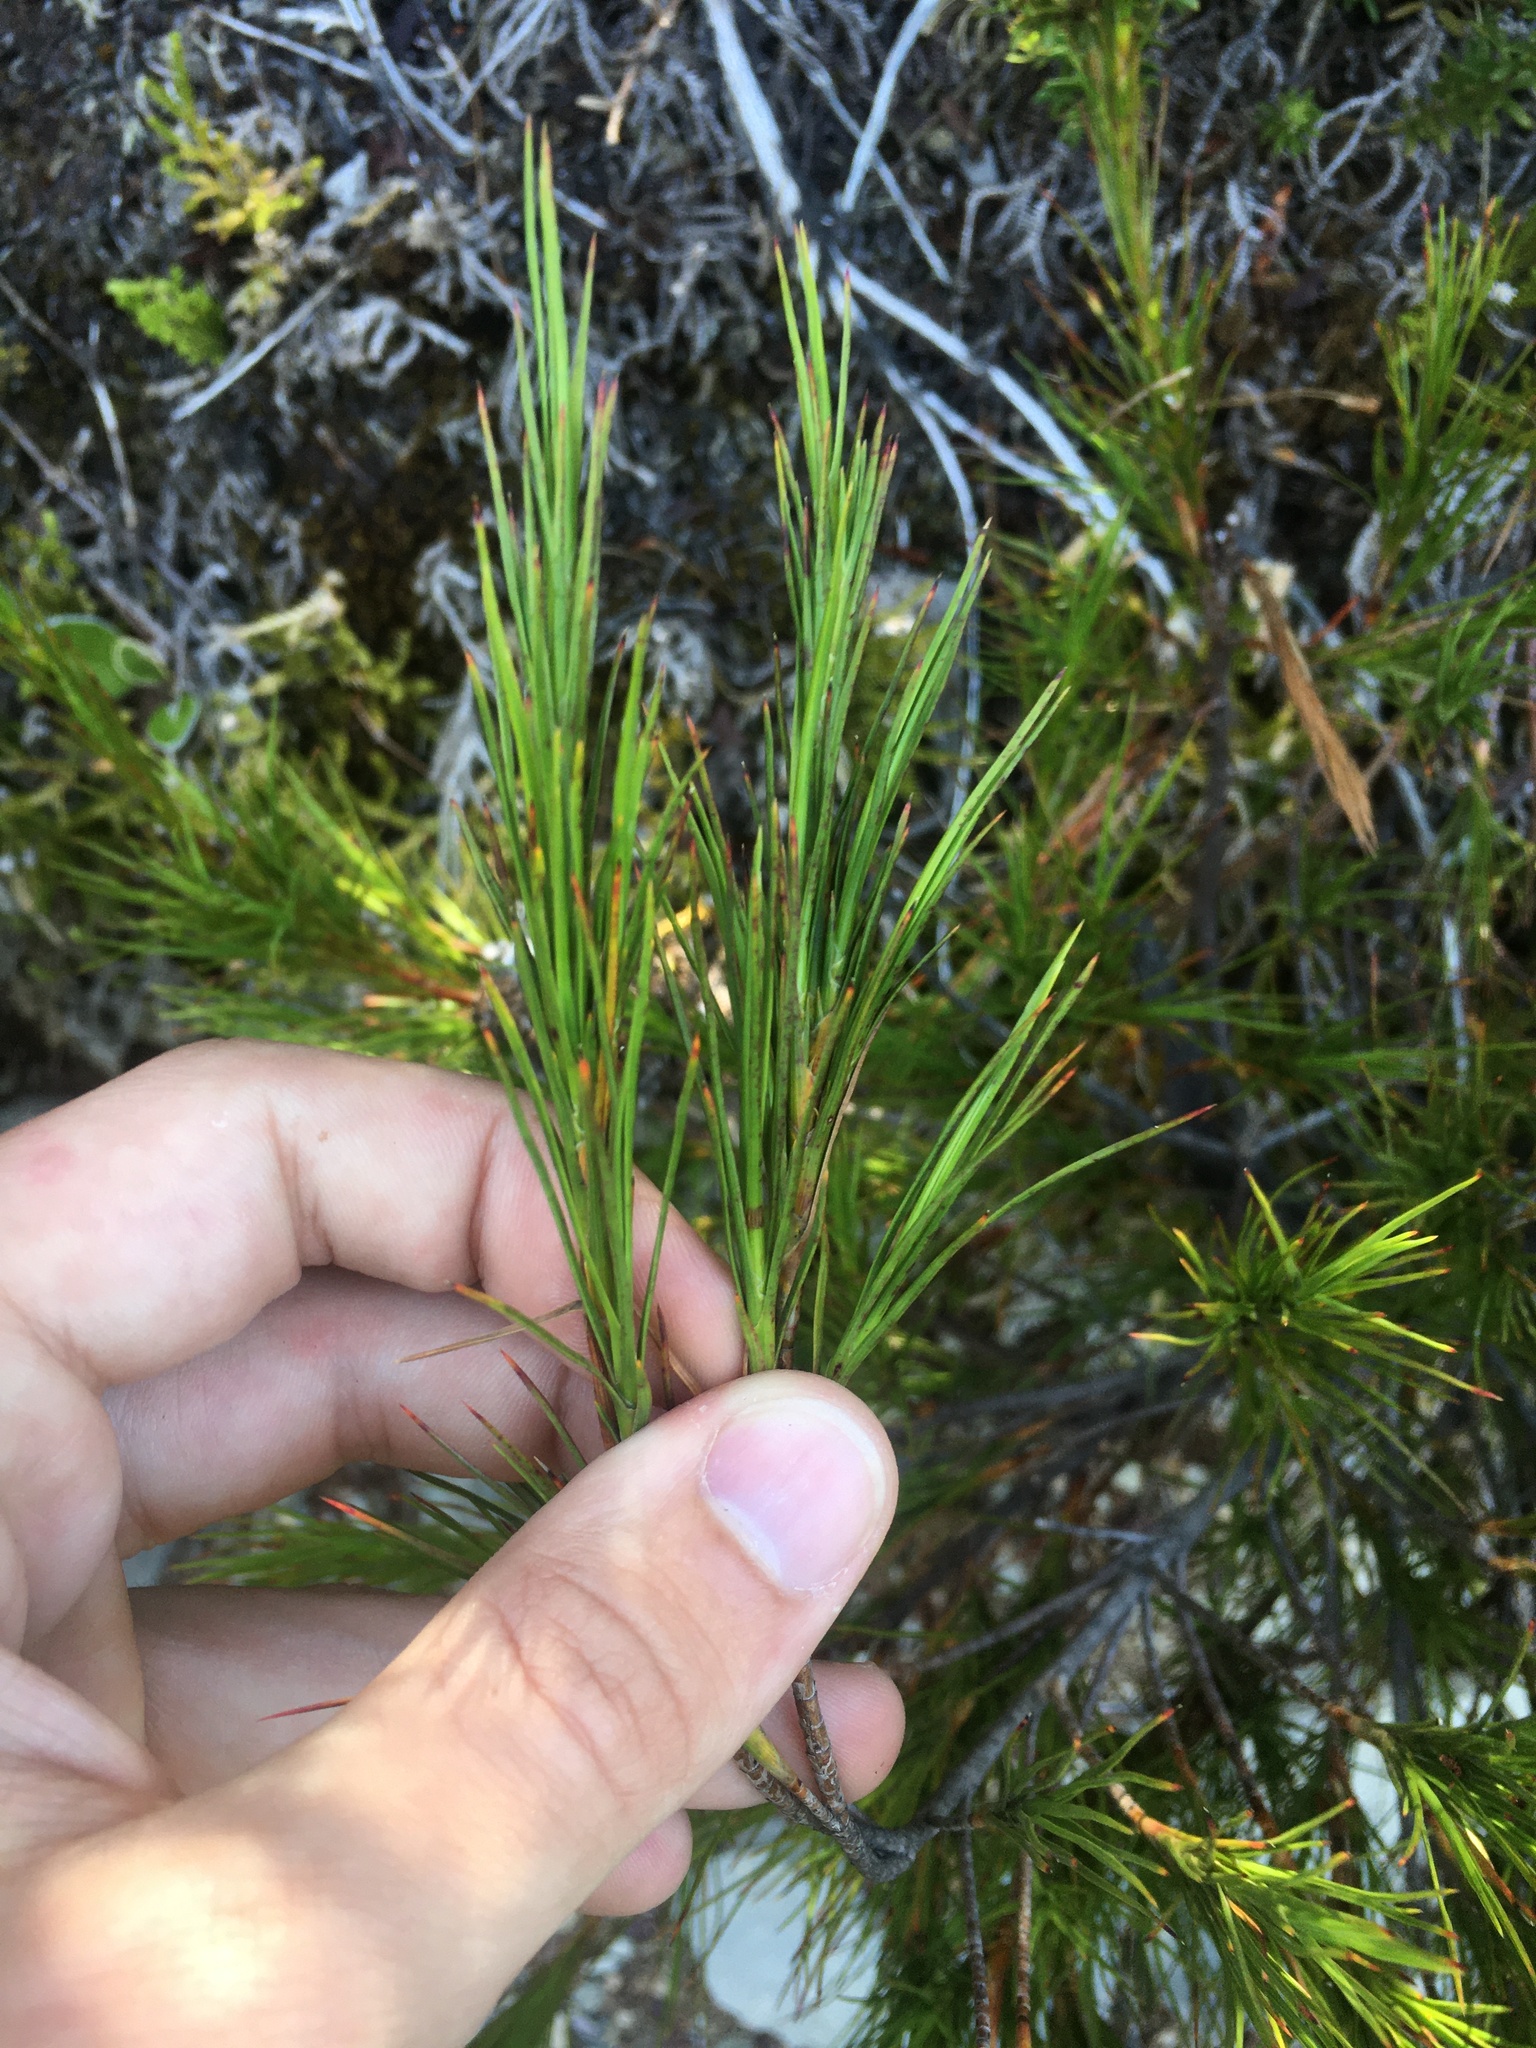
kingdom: Plantae
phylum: Tracheophyta
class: Magnoliopsida
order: Ericales
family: Ericaceae
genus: Dracophyllum
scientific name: Dracophyllum rosmarinifolium
